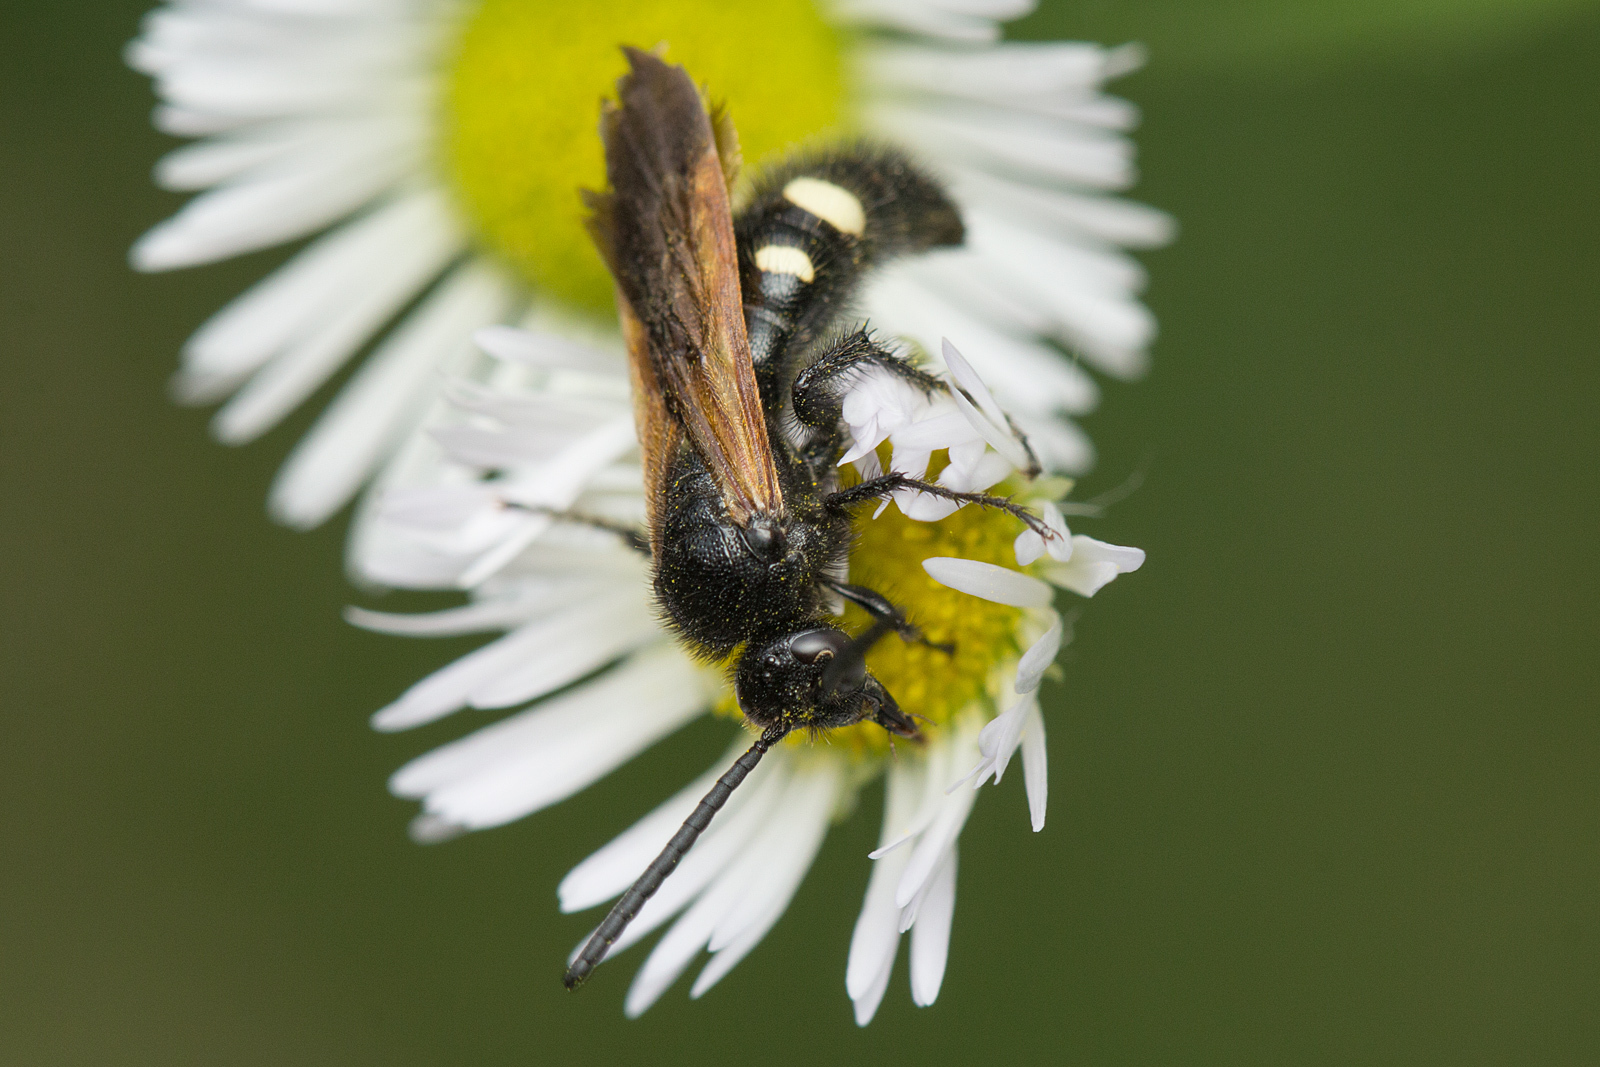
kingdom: Animalia
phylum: Arthropoda
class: Insecta
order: Hymenoptera
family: Vespidae
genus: Vespa
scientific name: Vespa sexmaculata
